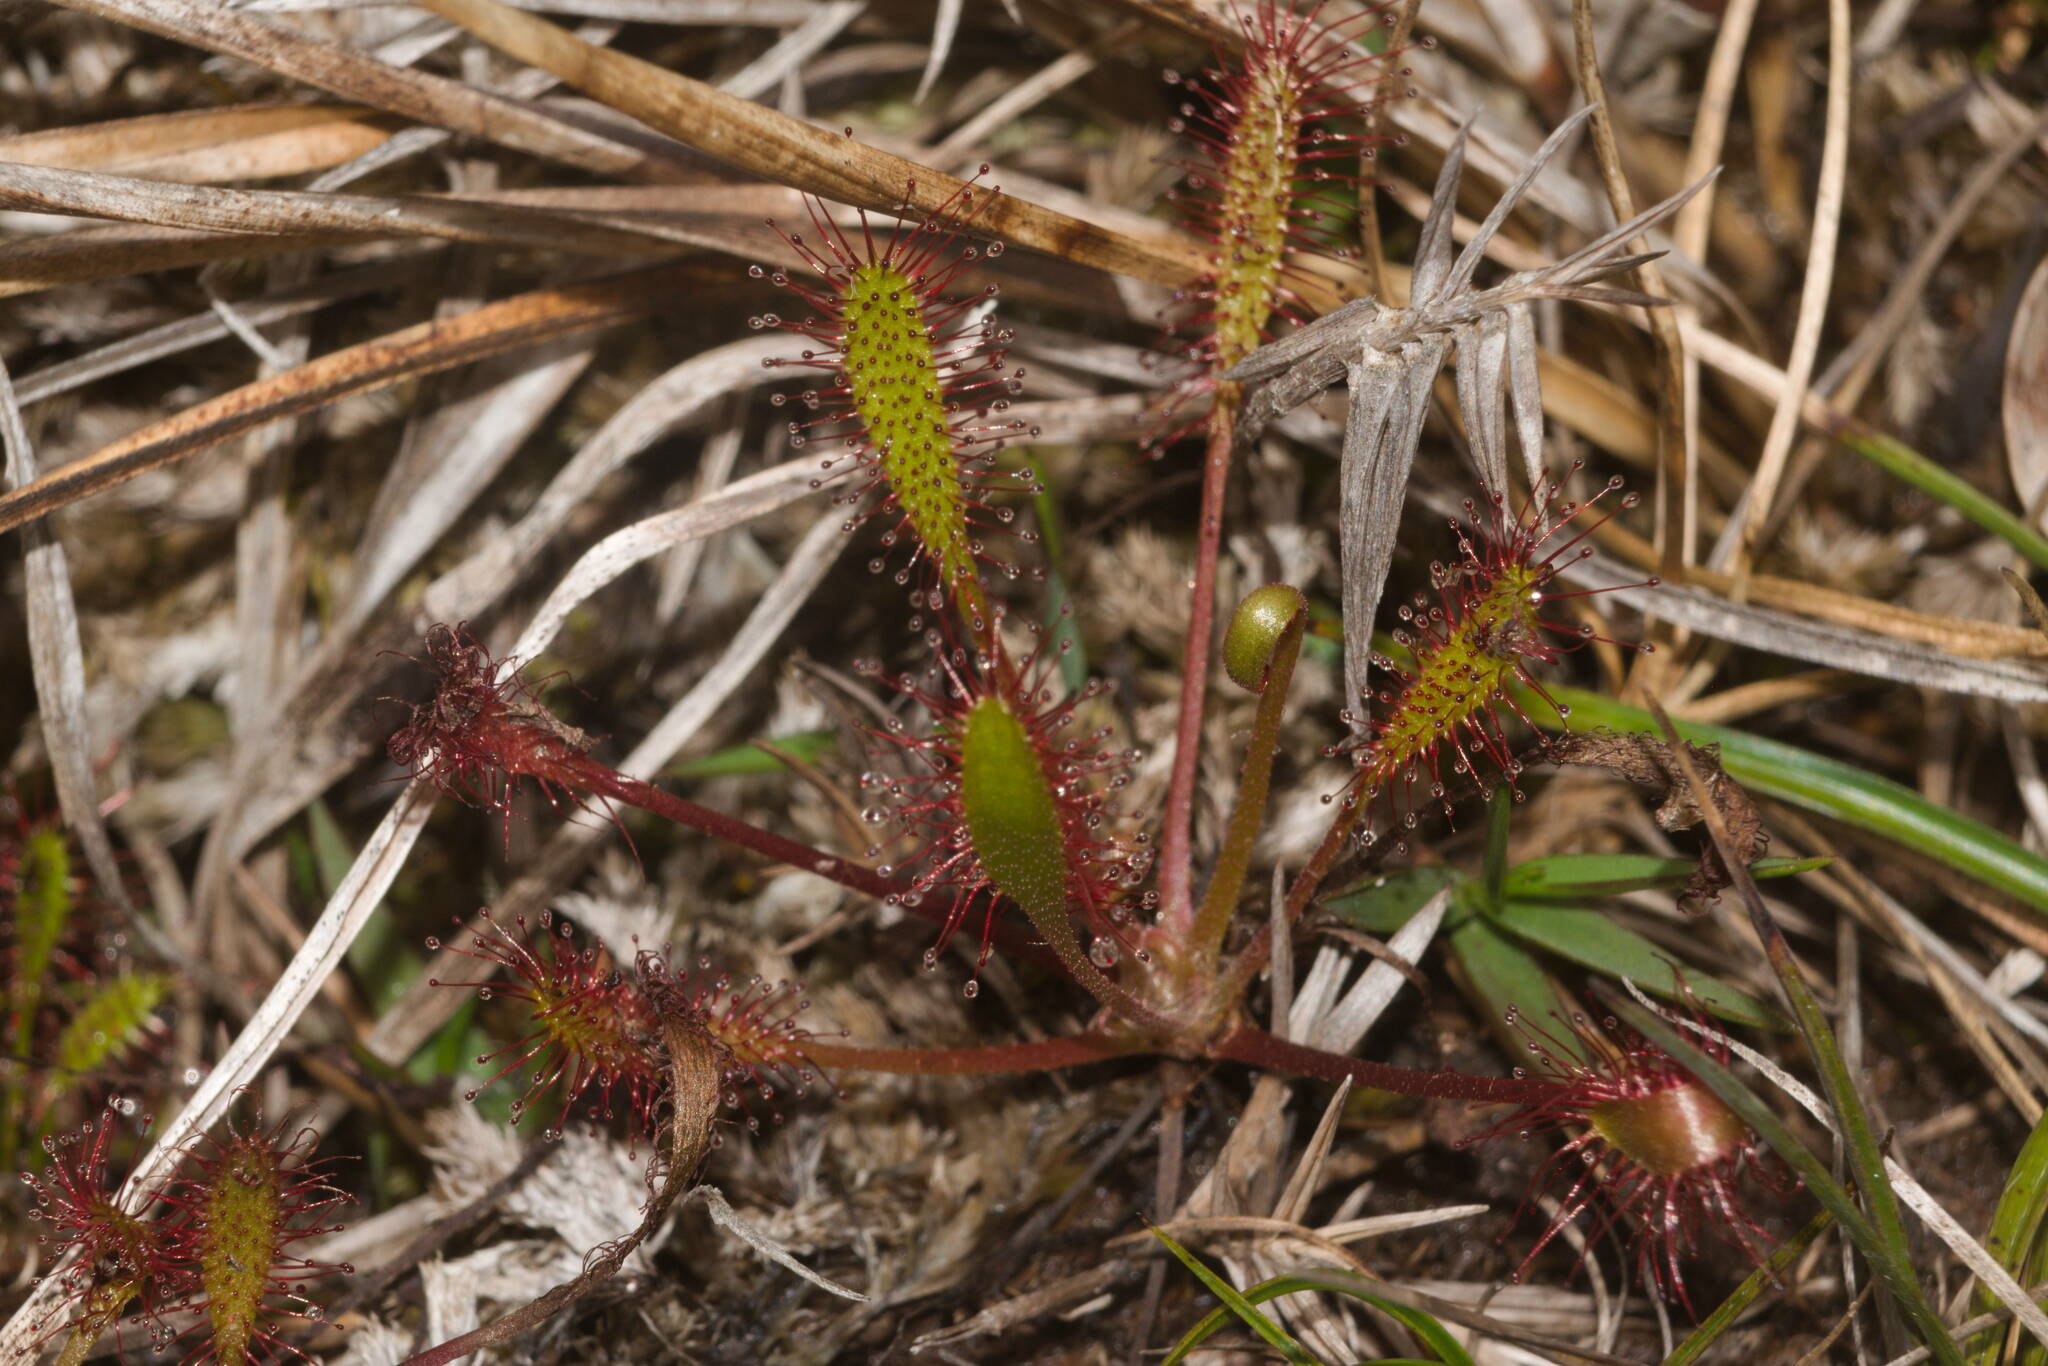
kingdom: Plantae
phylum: Tracheophyta
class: Magnoliopsida
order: Caryophyllales
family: Droseraceae
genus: Drosera
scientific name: Drosera anglica
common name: Great sundew
